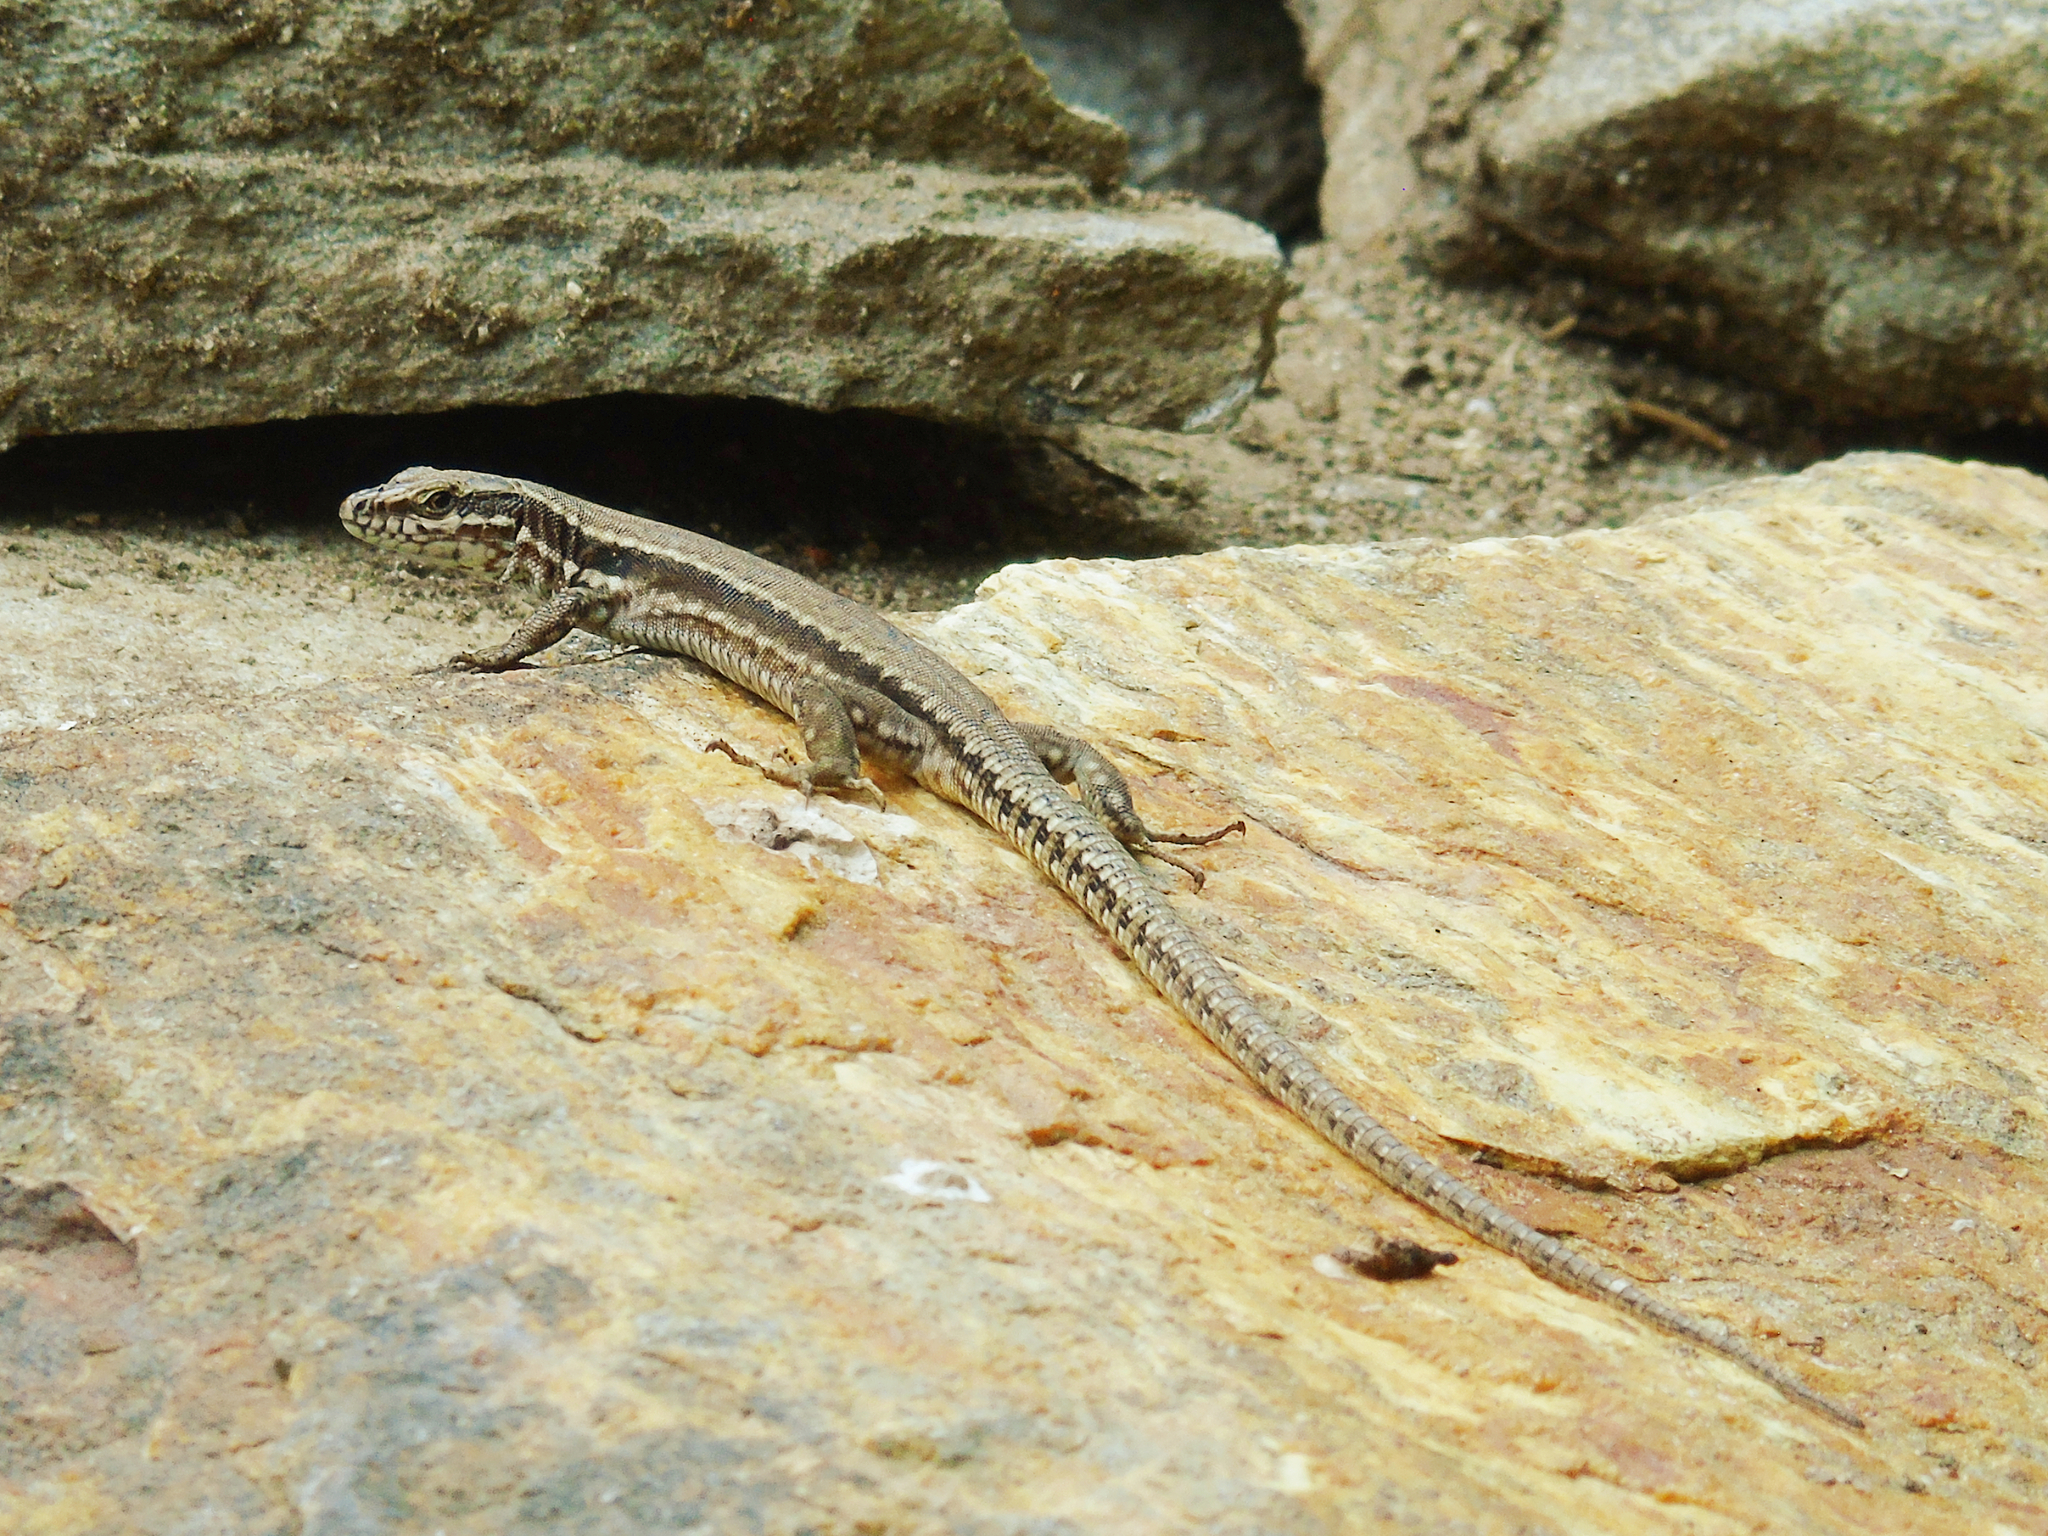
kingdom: Animalia
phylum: Chordata
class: Squamata
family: Lacertidae
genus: Podarcis
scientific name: Podarcis muralis
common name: Common wall lizard
